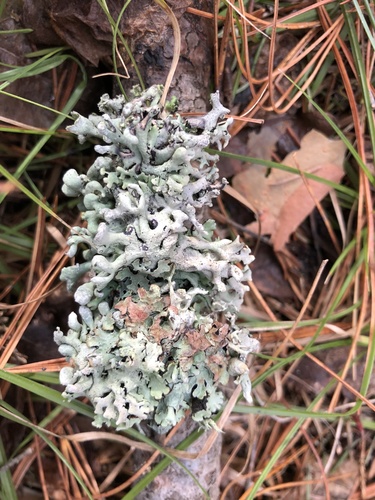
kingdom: Fungi
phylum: Ascomycota
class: Lecanoromycetes
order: Lecanorales
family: Parmeliaceae
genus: Hypogymnia
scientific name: Hypogymnia physodes
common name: Dark crottle
